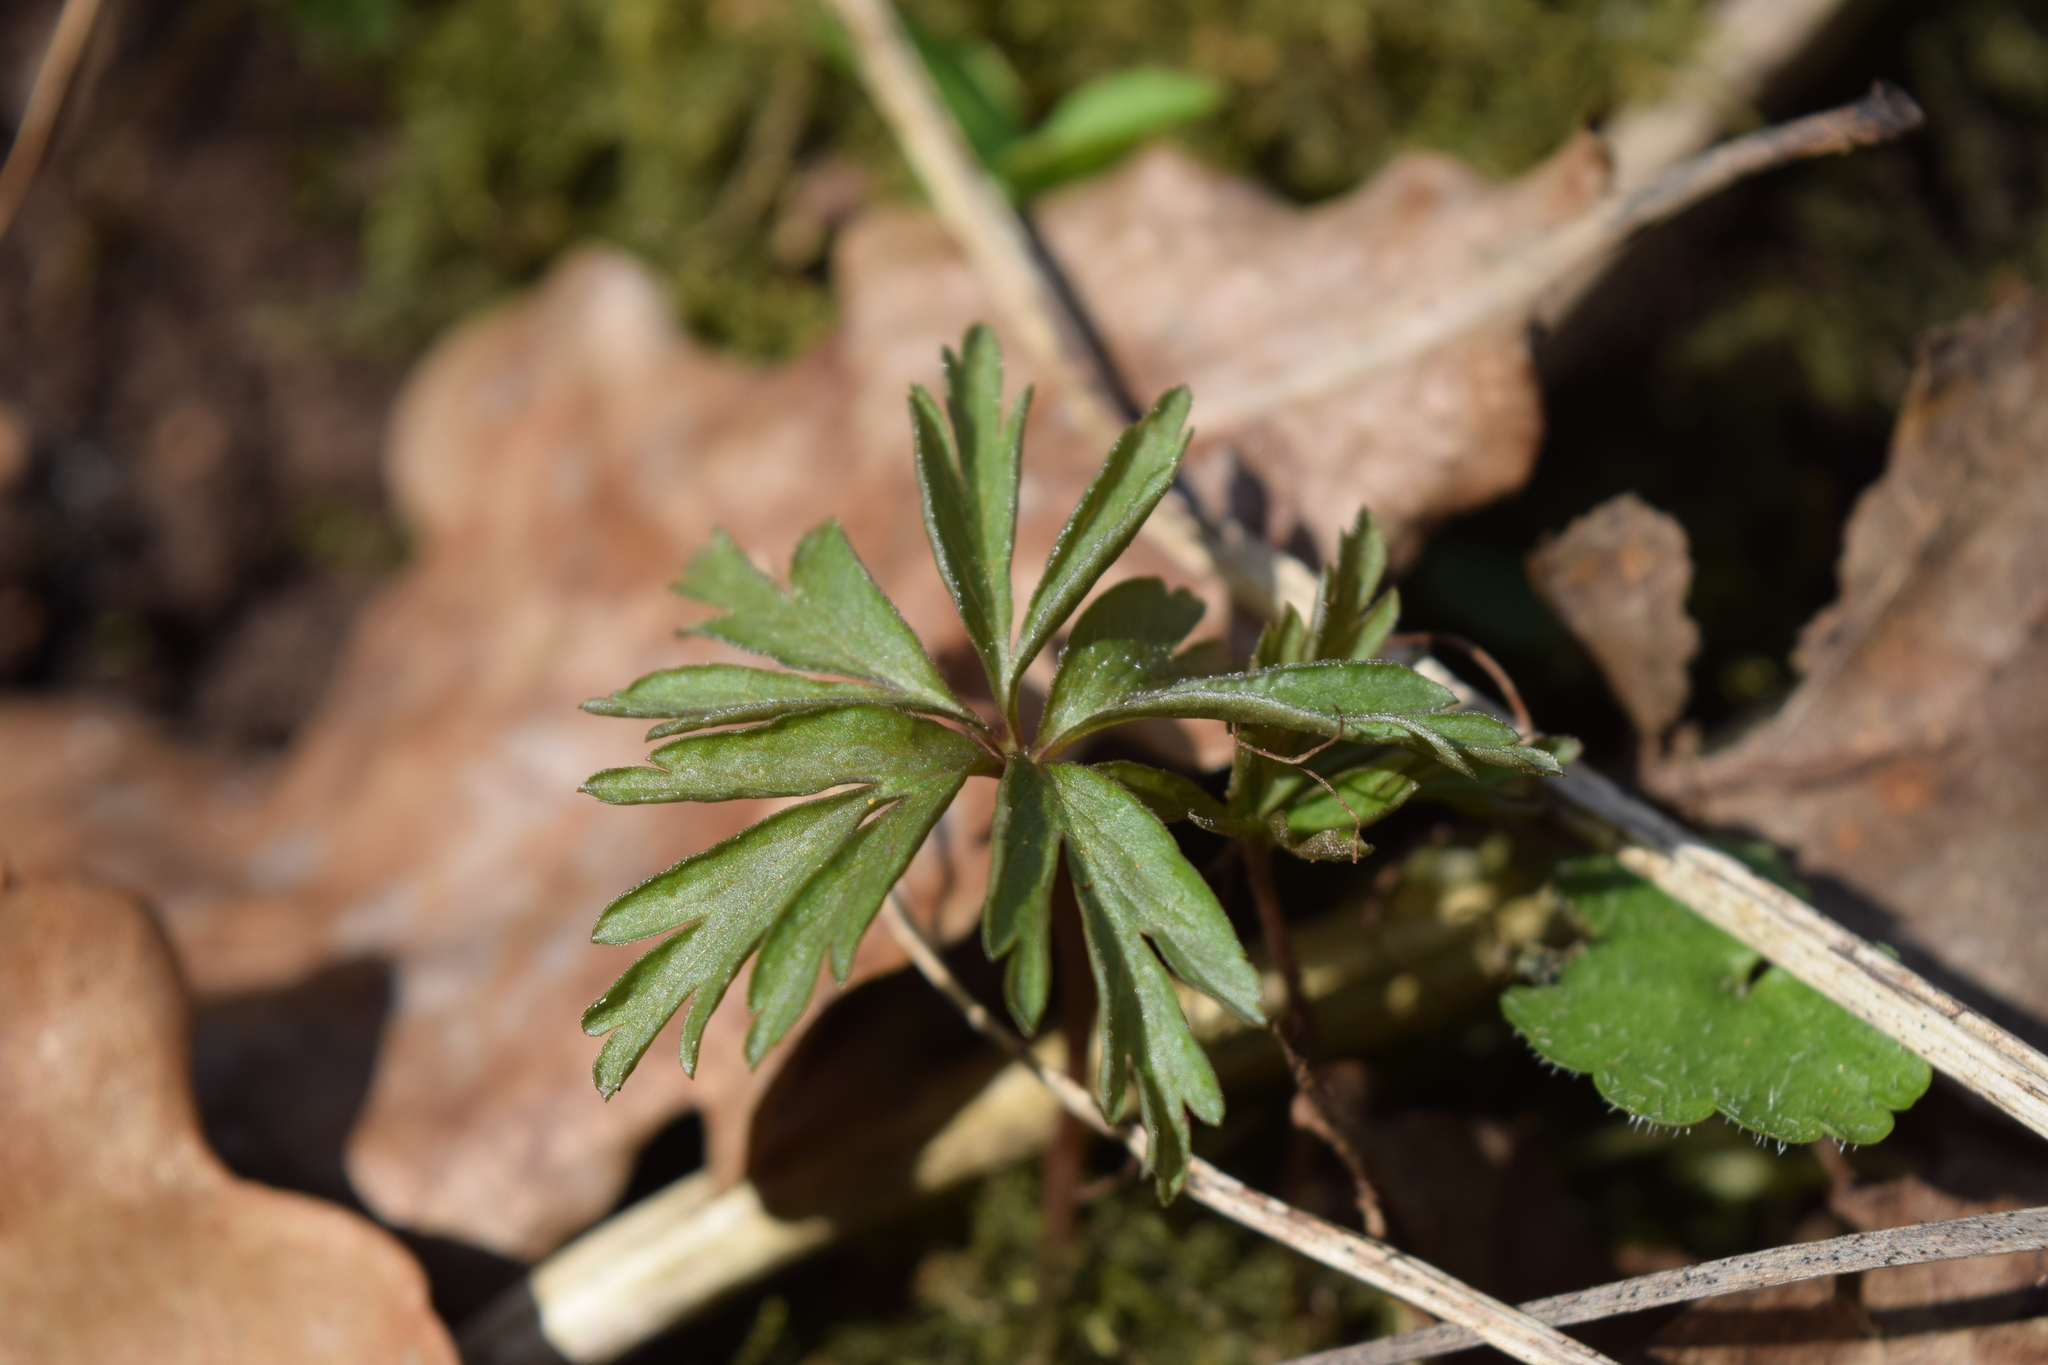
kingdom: Plantae
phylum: Tracheophyta
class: Magnoliopsida
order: Ranunculales
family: Ranunculaceae
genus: Anemone
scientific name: Anemone ranunculoides
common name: Yellow anemone
